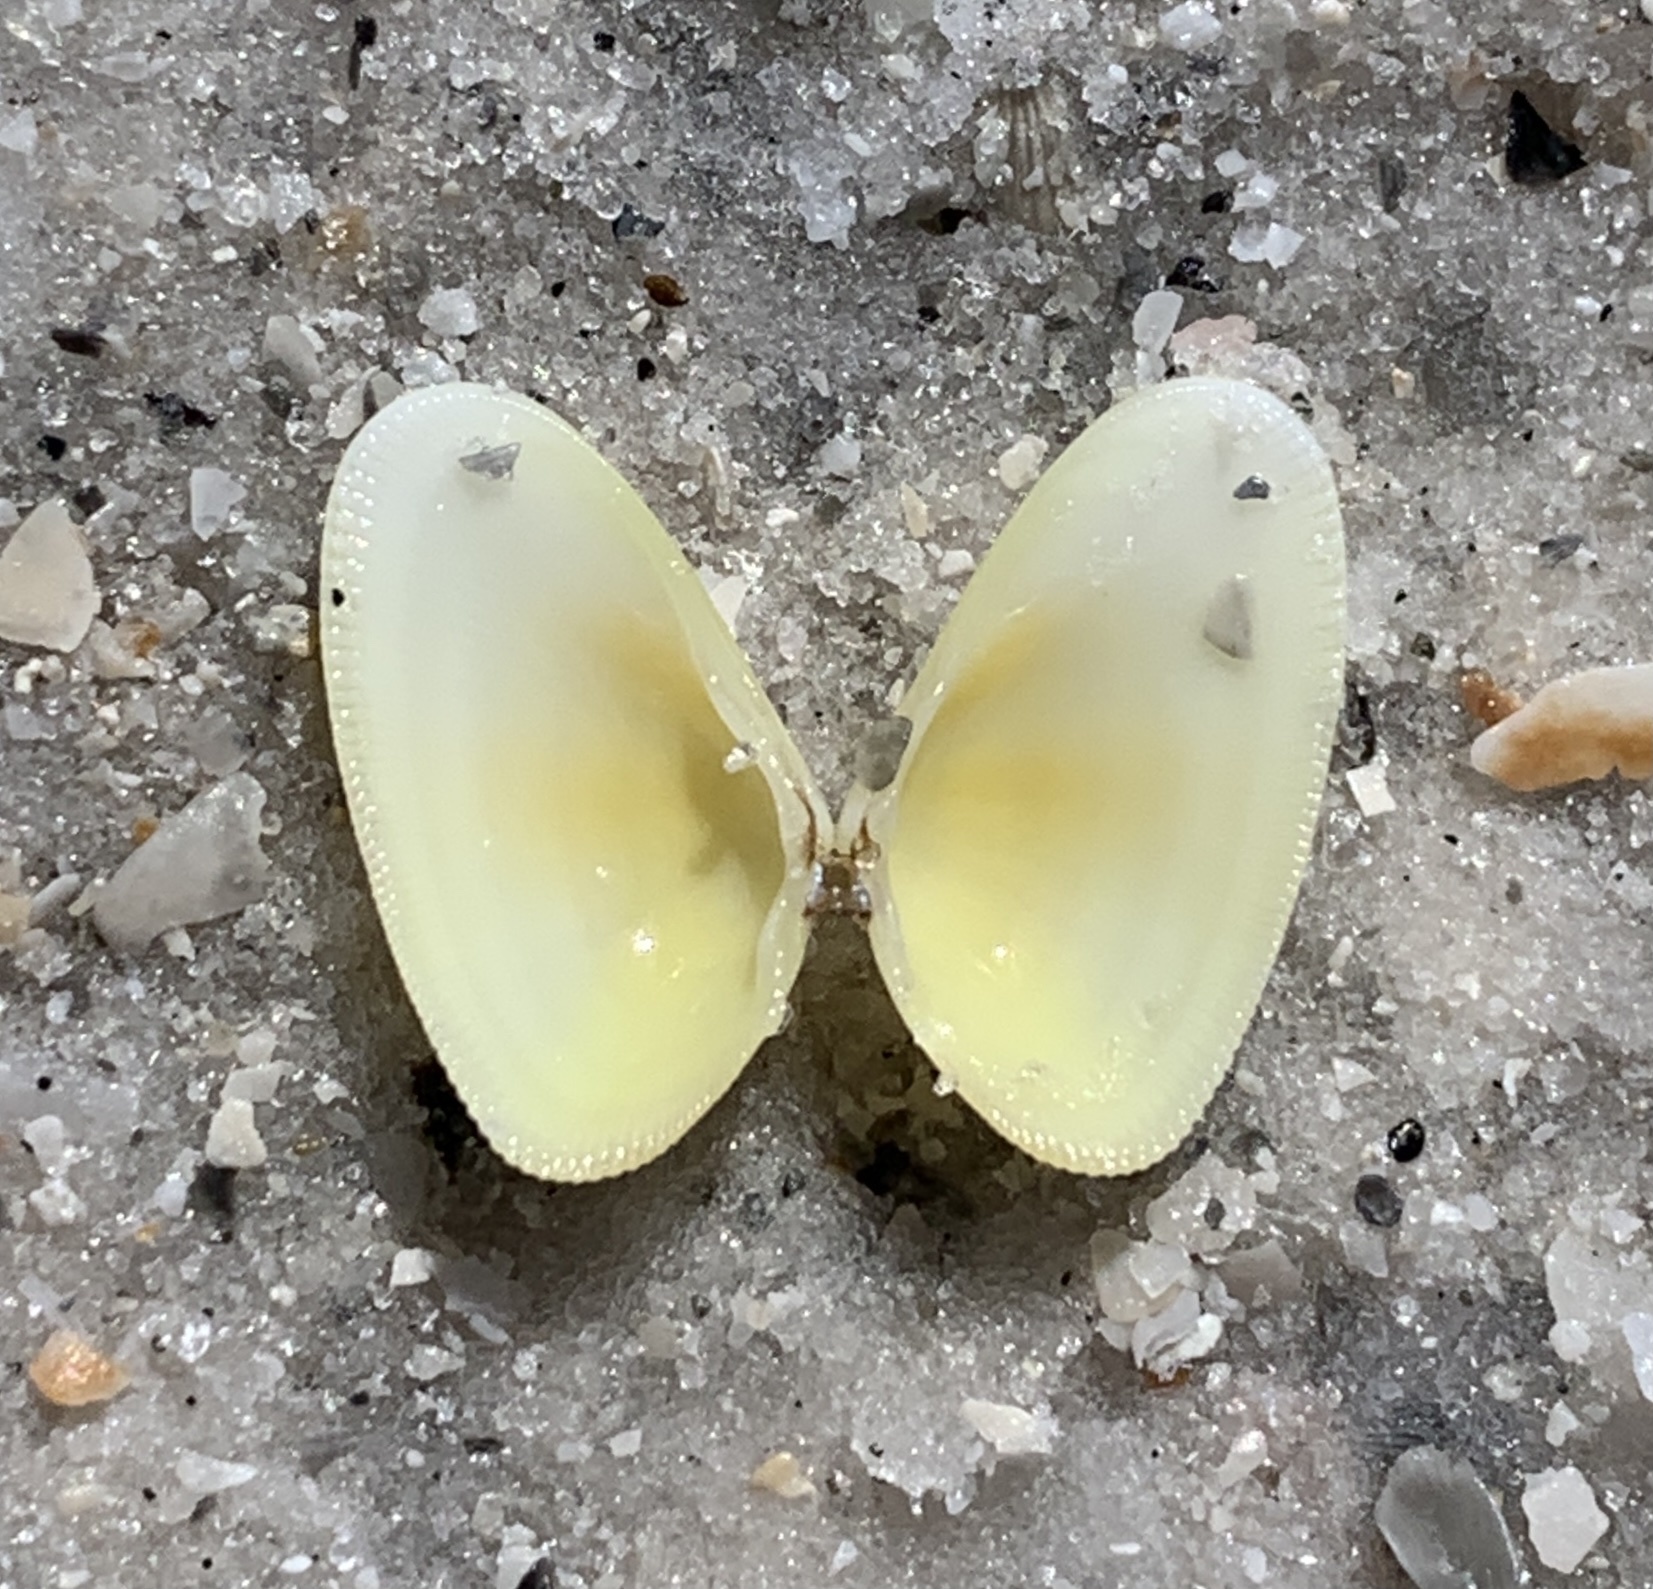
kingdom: Animalia
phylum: Mollusca
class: Bivalvia
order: Cardiida
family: Donacidae
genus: Donax
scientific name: Donax variabilis
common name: Butterfly shell
